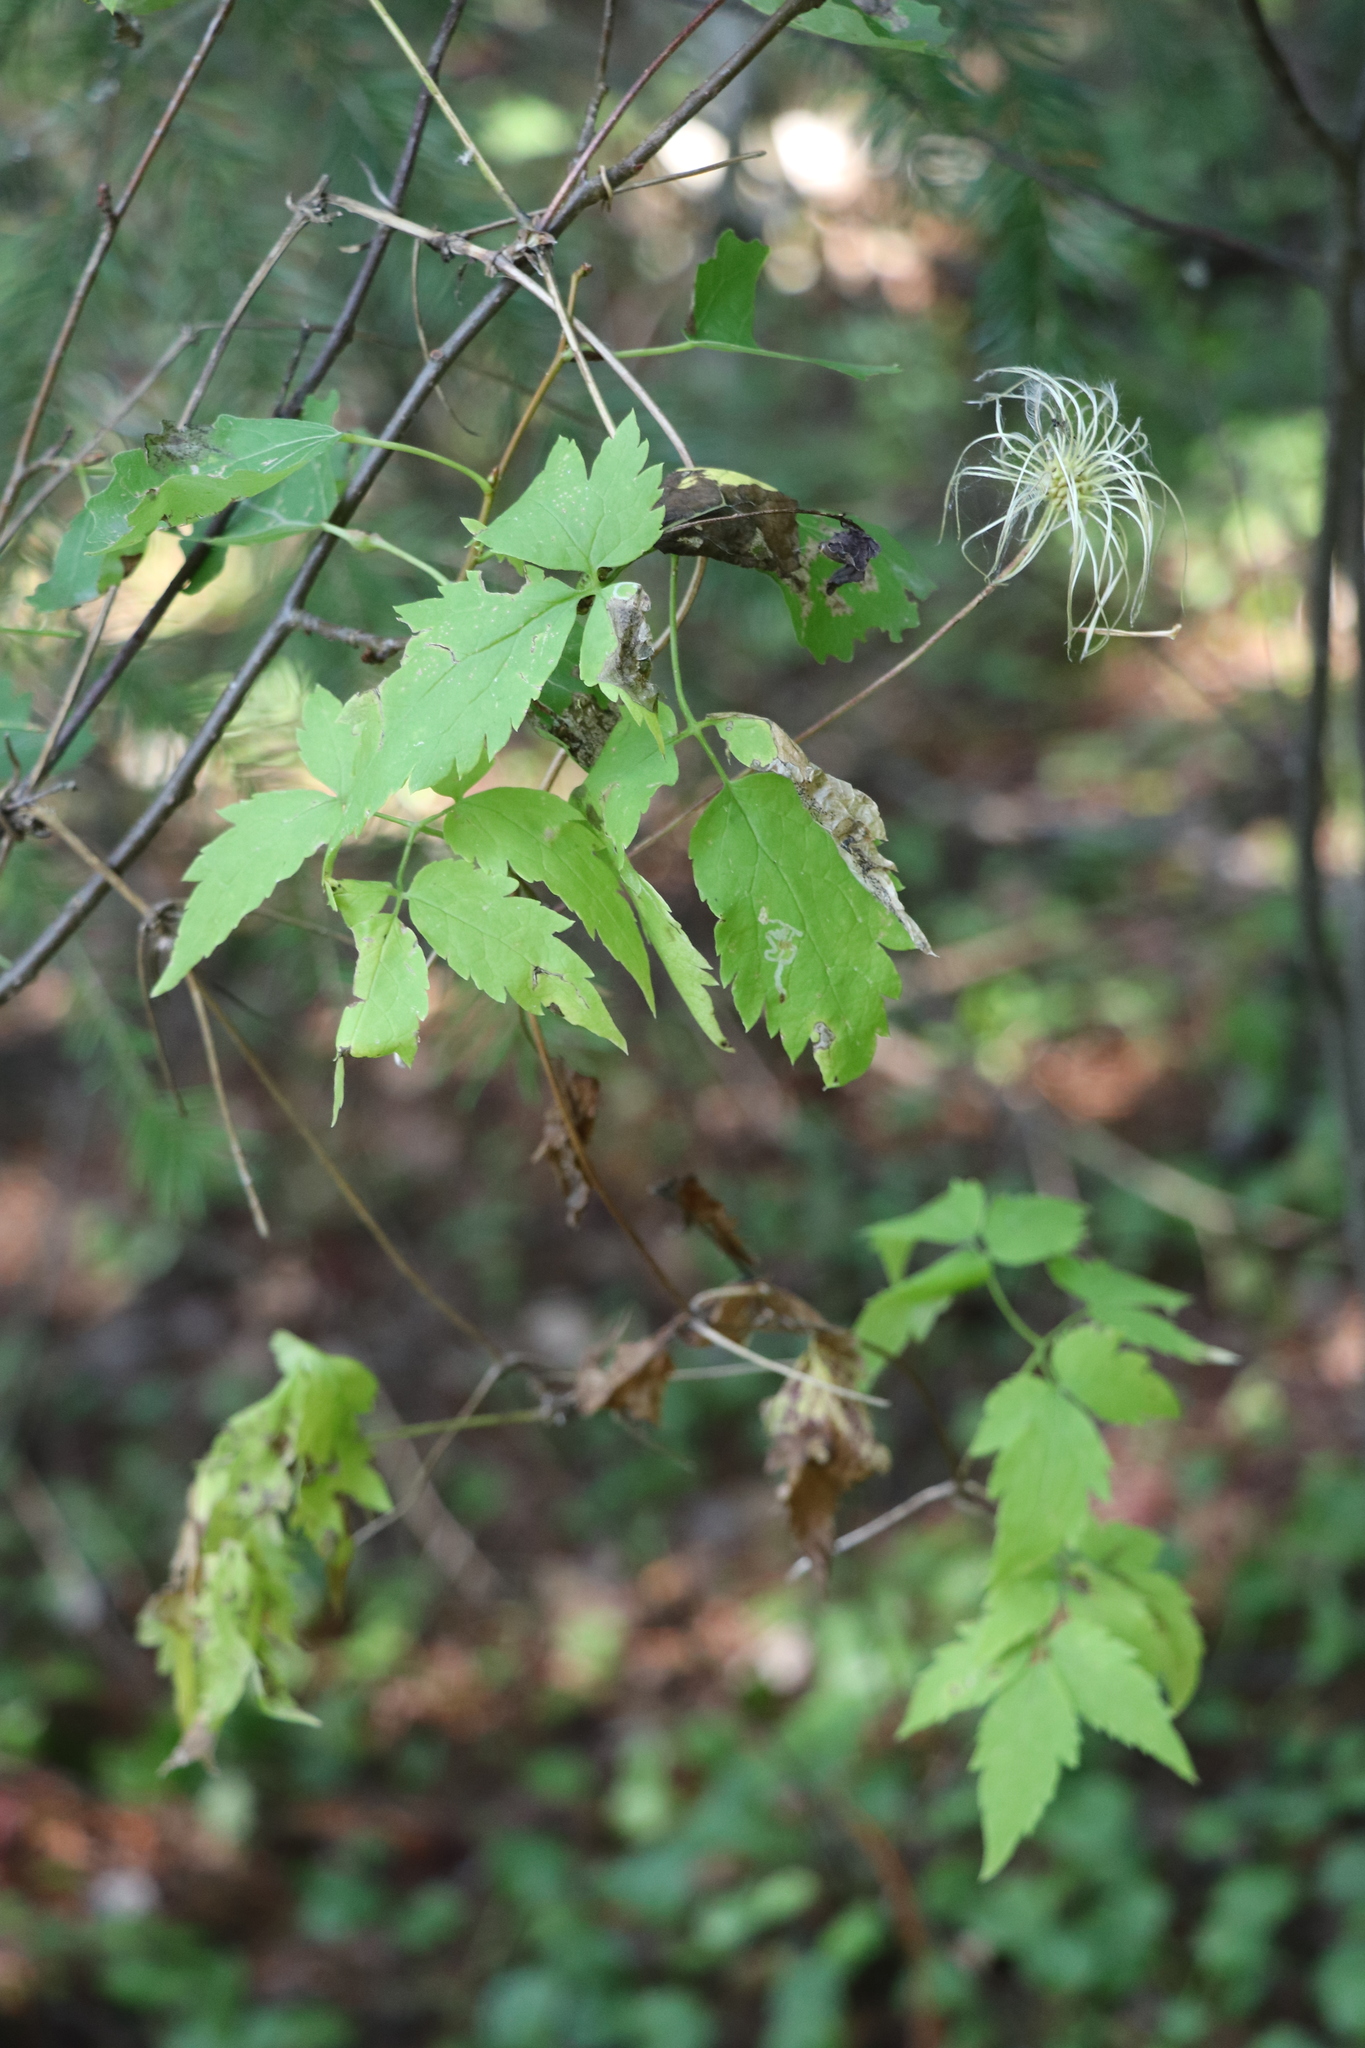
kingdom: Plantae
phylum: Tracheophyta
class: Magnoliopsida
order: Ranunculales
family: Ranunculaceae
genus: Clematis
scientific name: Clematis sibirica
